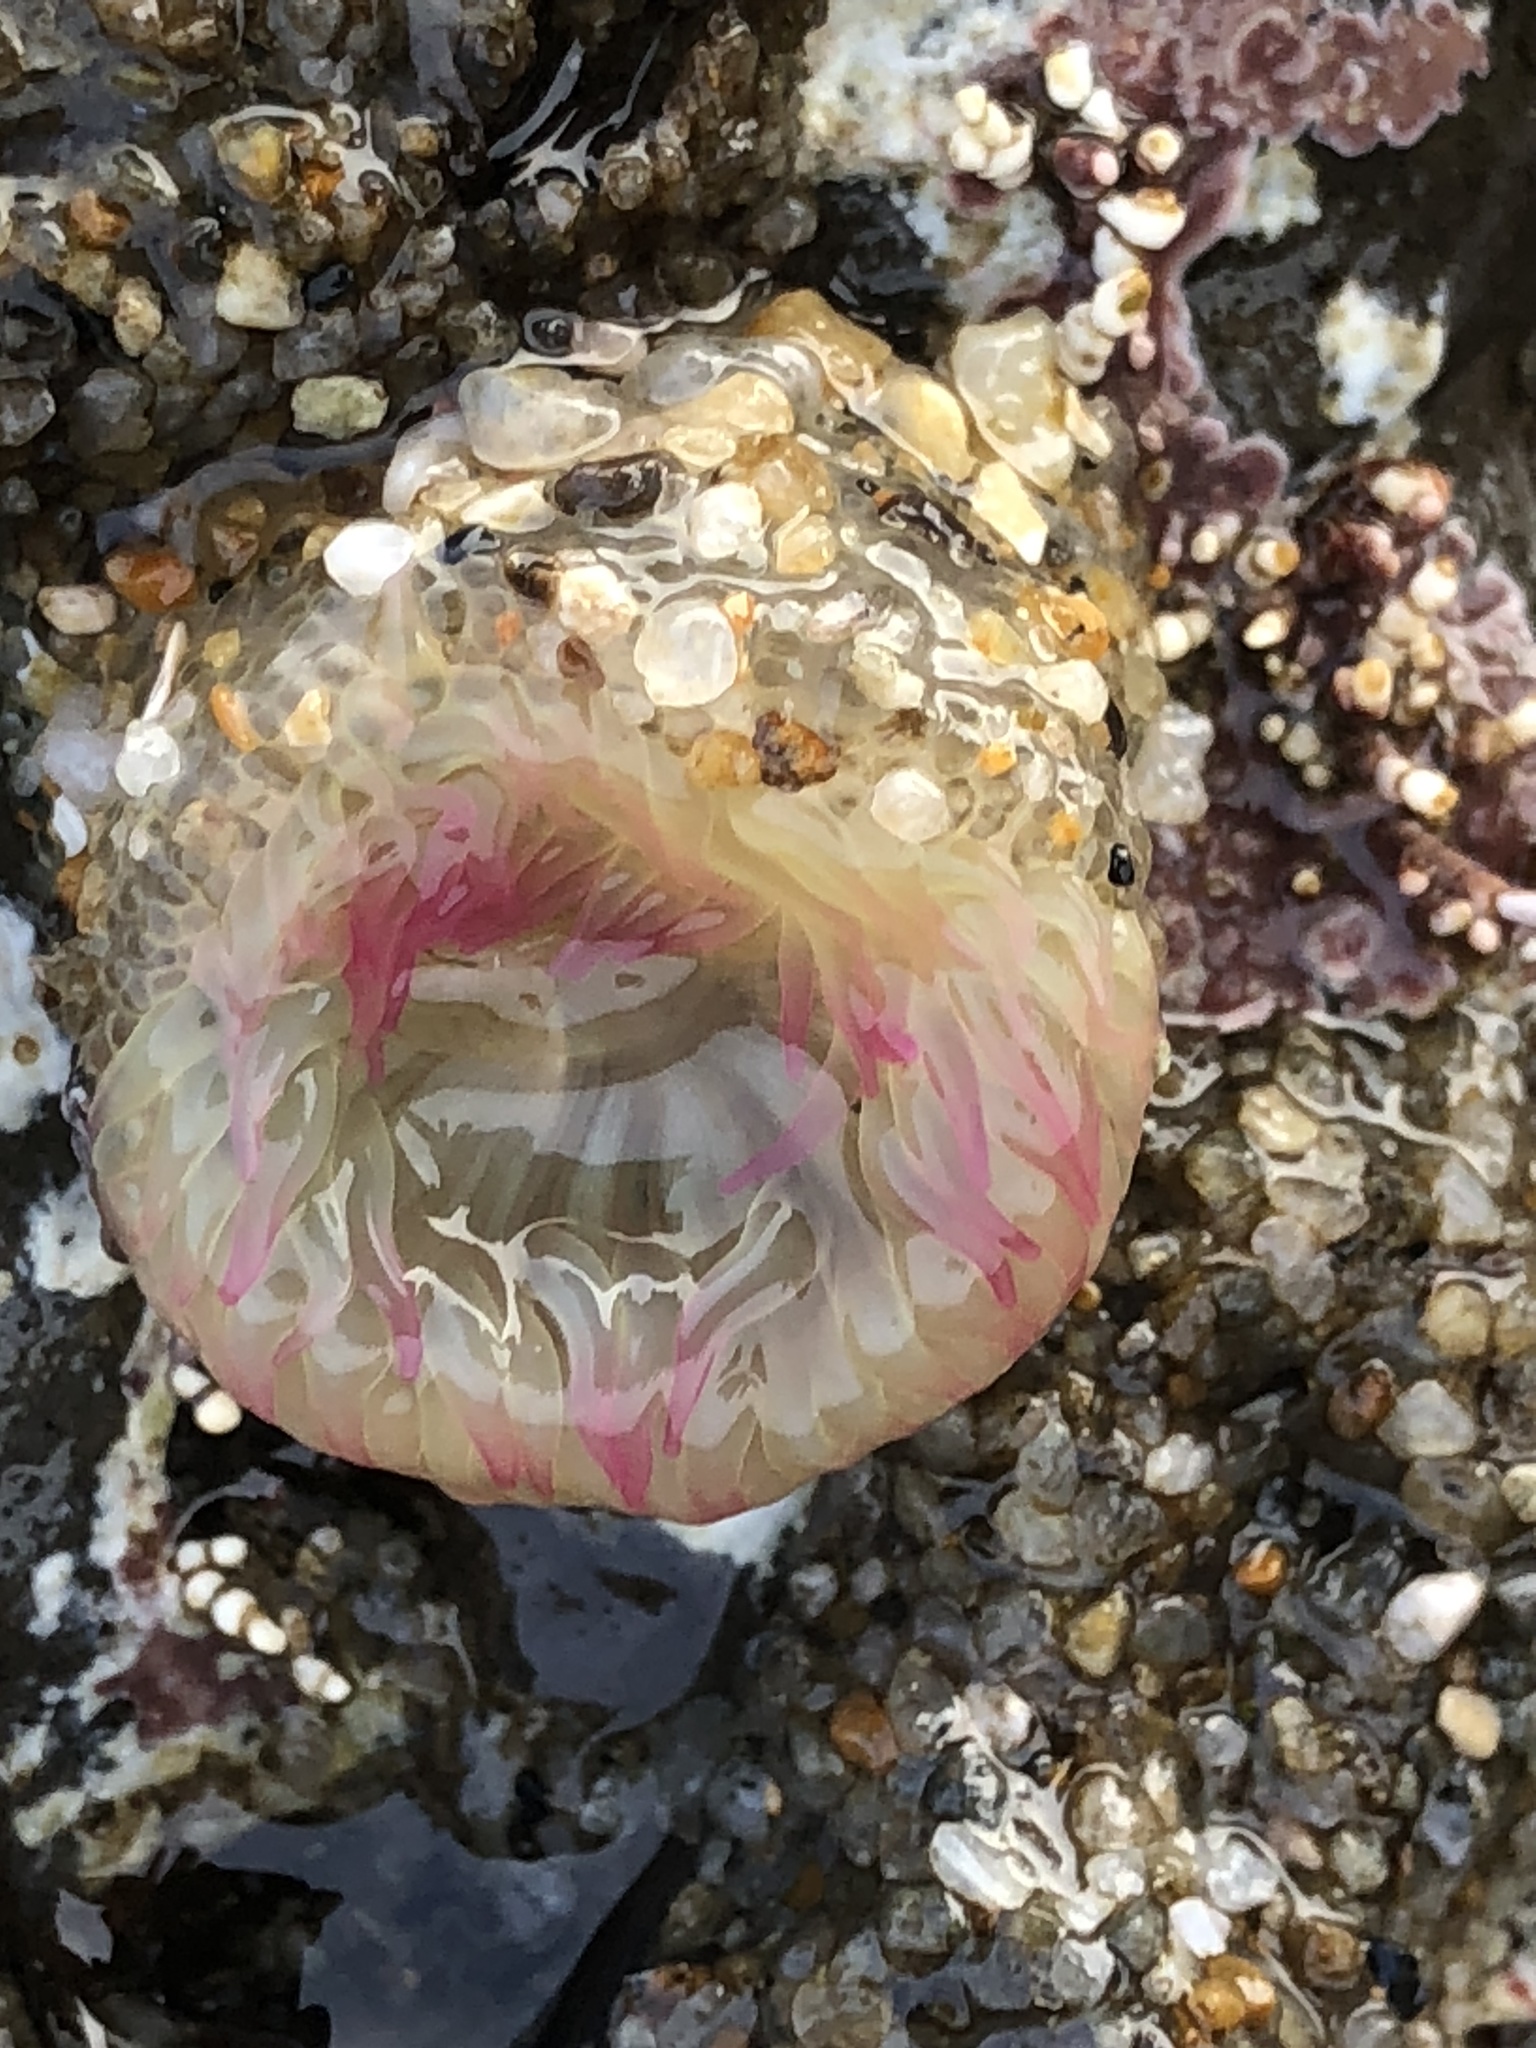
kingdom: Animalia
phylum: Cnidaria
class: Anthozoa
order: Actiniaria
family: Actiniidae
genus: Anthopleura
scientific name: Anthopleura elegantissima
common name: Clonal anemone
